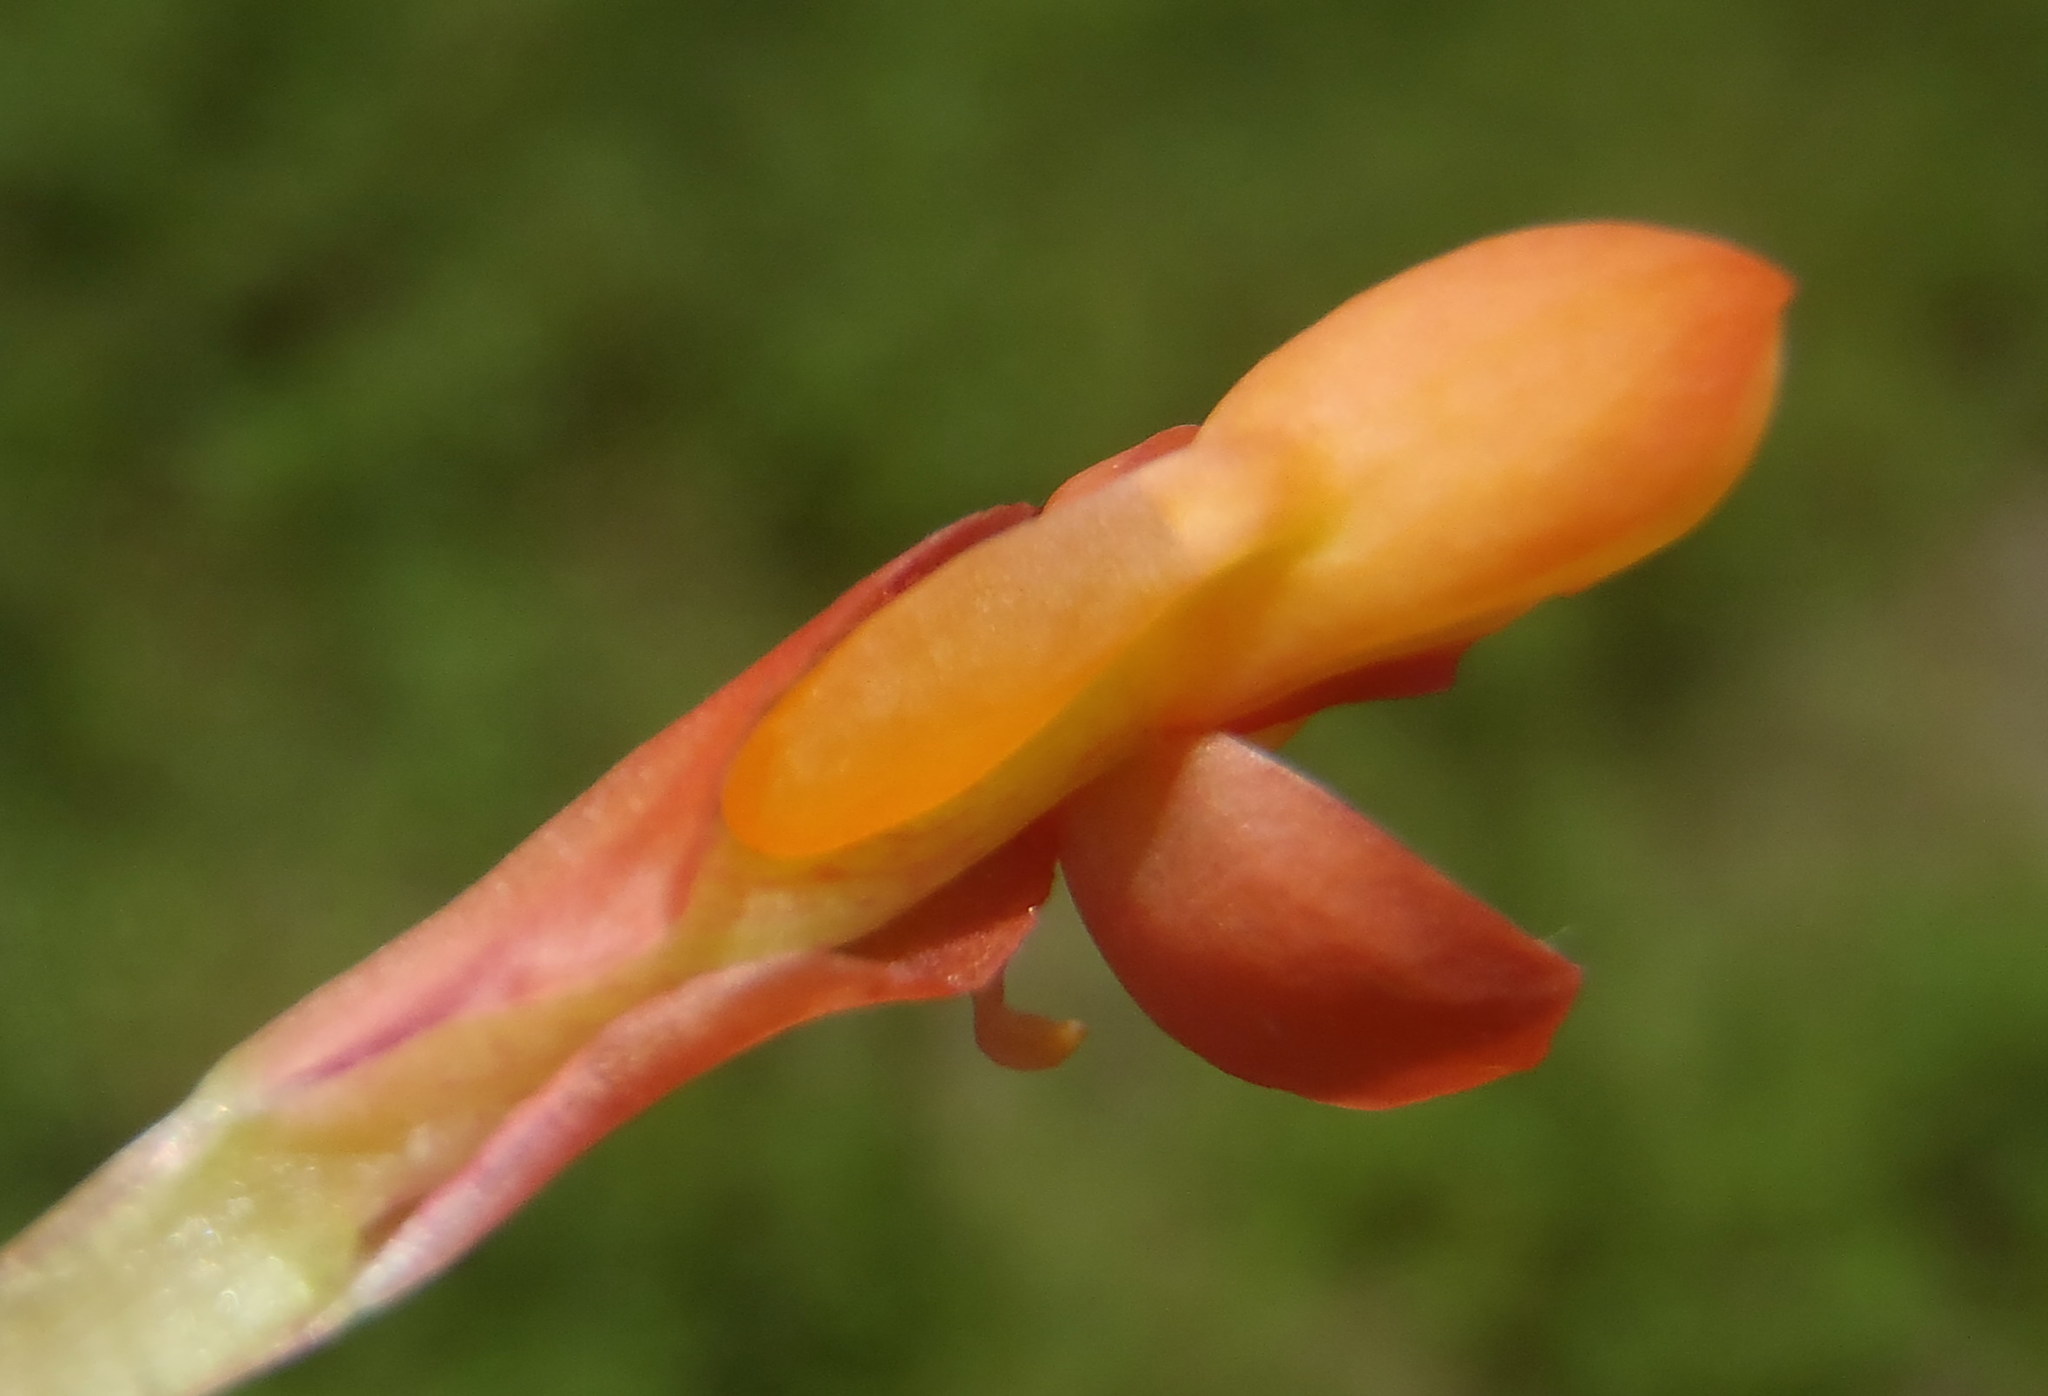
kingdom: Plantae
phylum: Tracheophyta
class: Liliopsida
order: Asparagales
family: Orchidaceae
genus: Disa
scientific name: Disa chrysostachya
